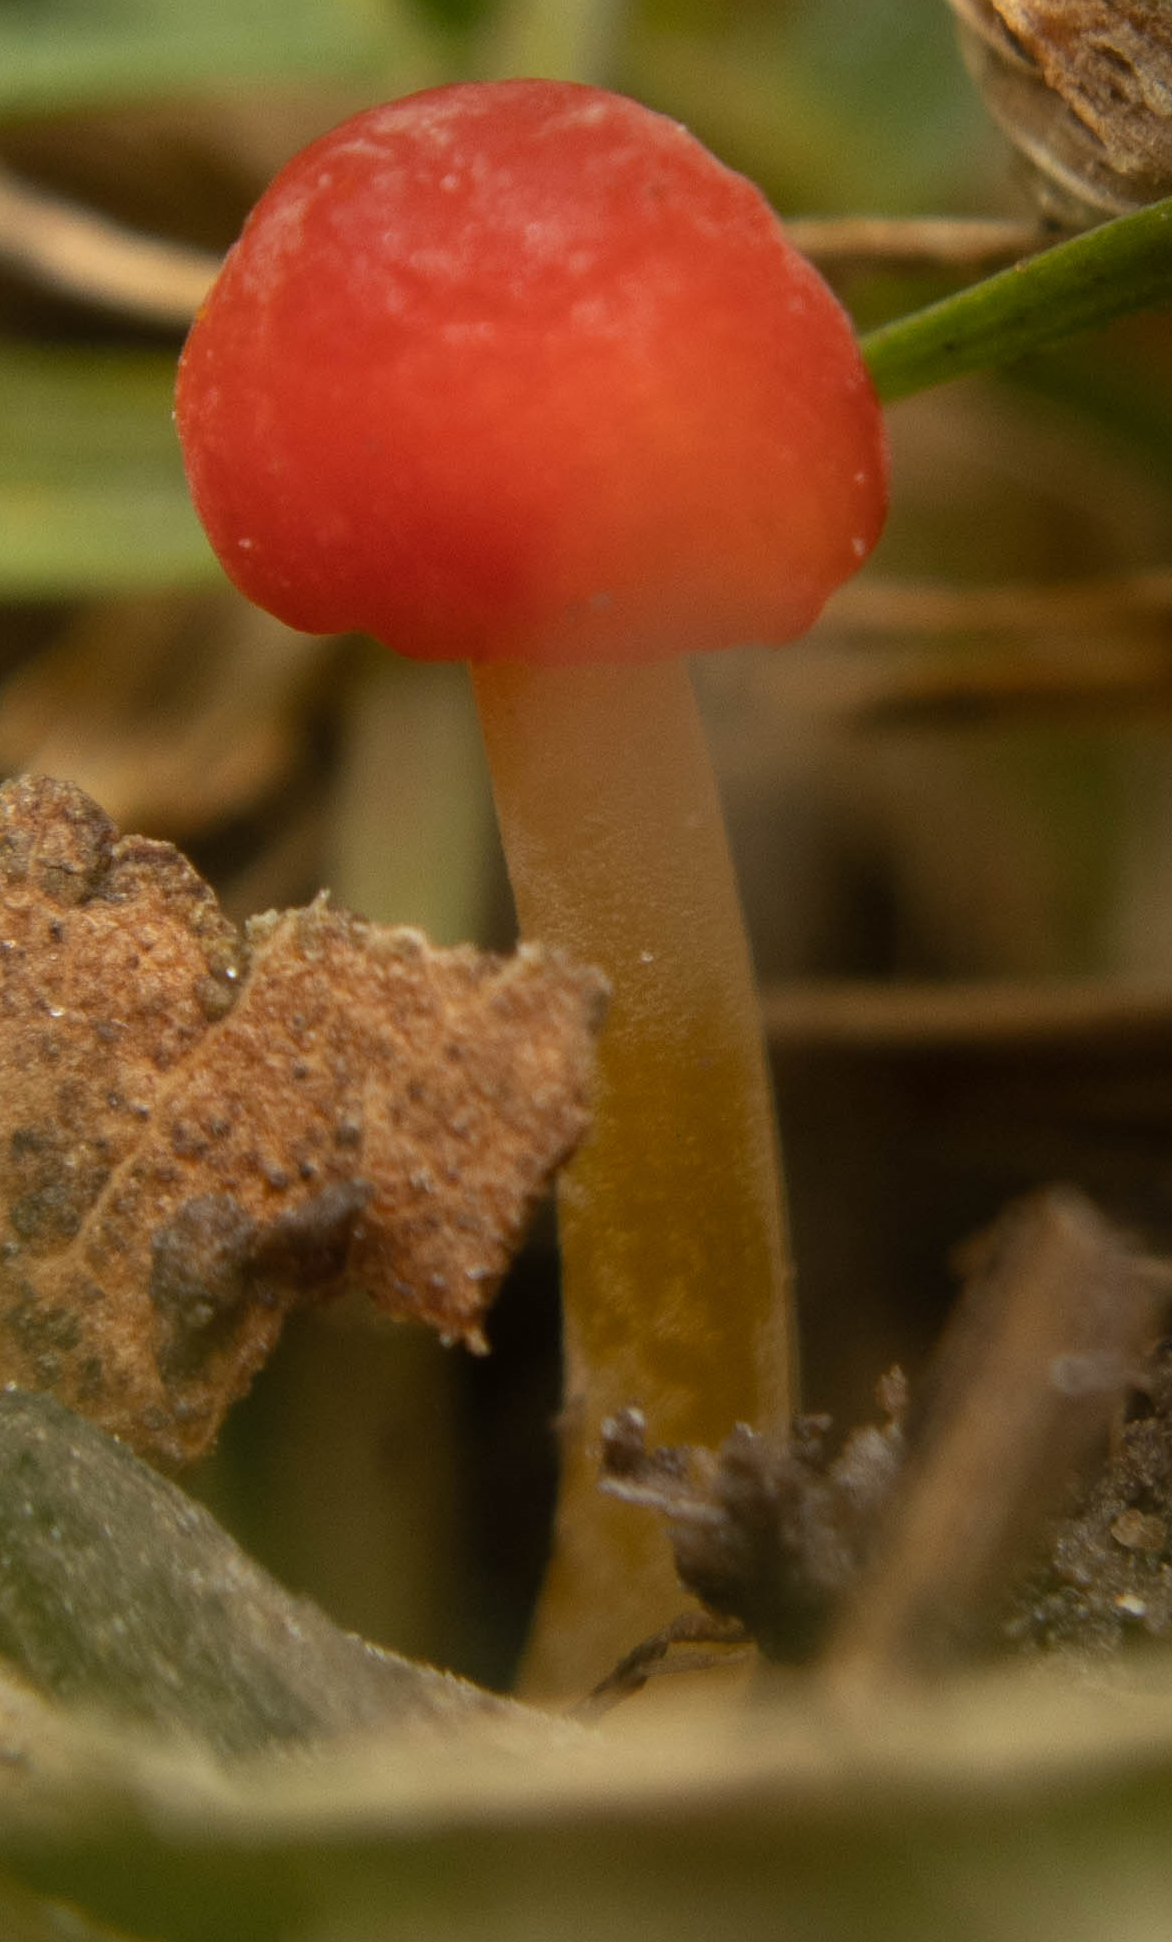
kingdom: Fungi
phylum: Basidiomycota
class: Agaricomycetes
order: Agaricales
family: Mycenaceae
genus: Mycena
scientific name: Mycena acicula
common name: Orange bonnet
